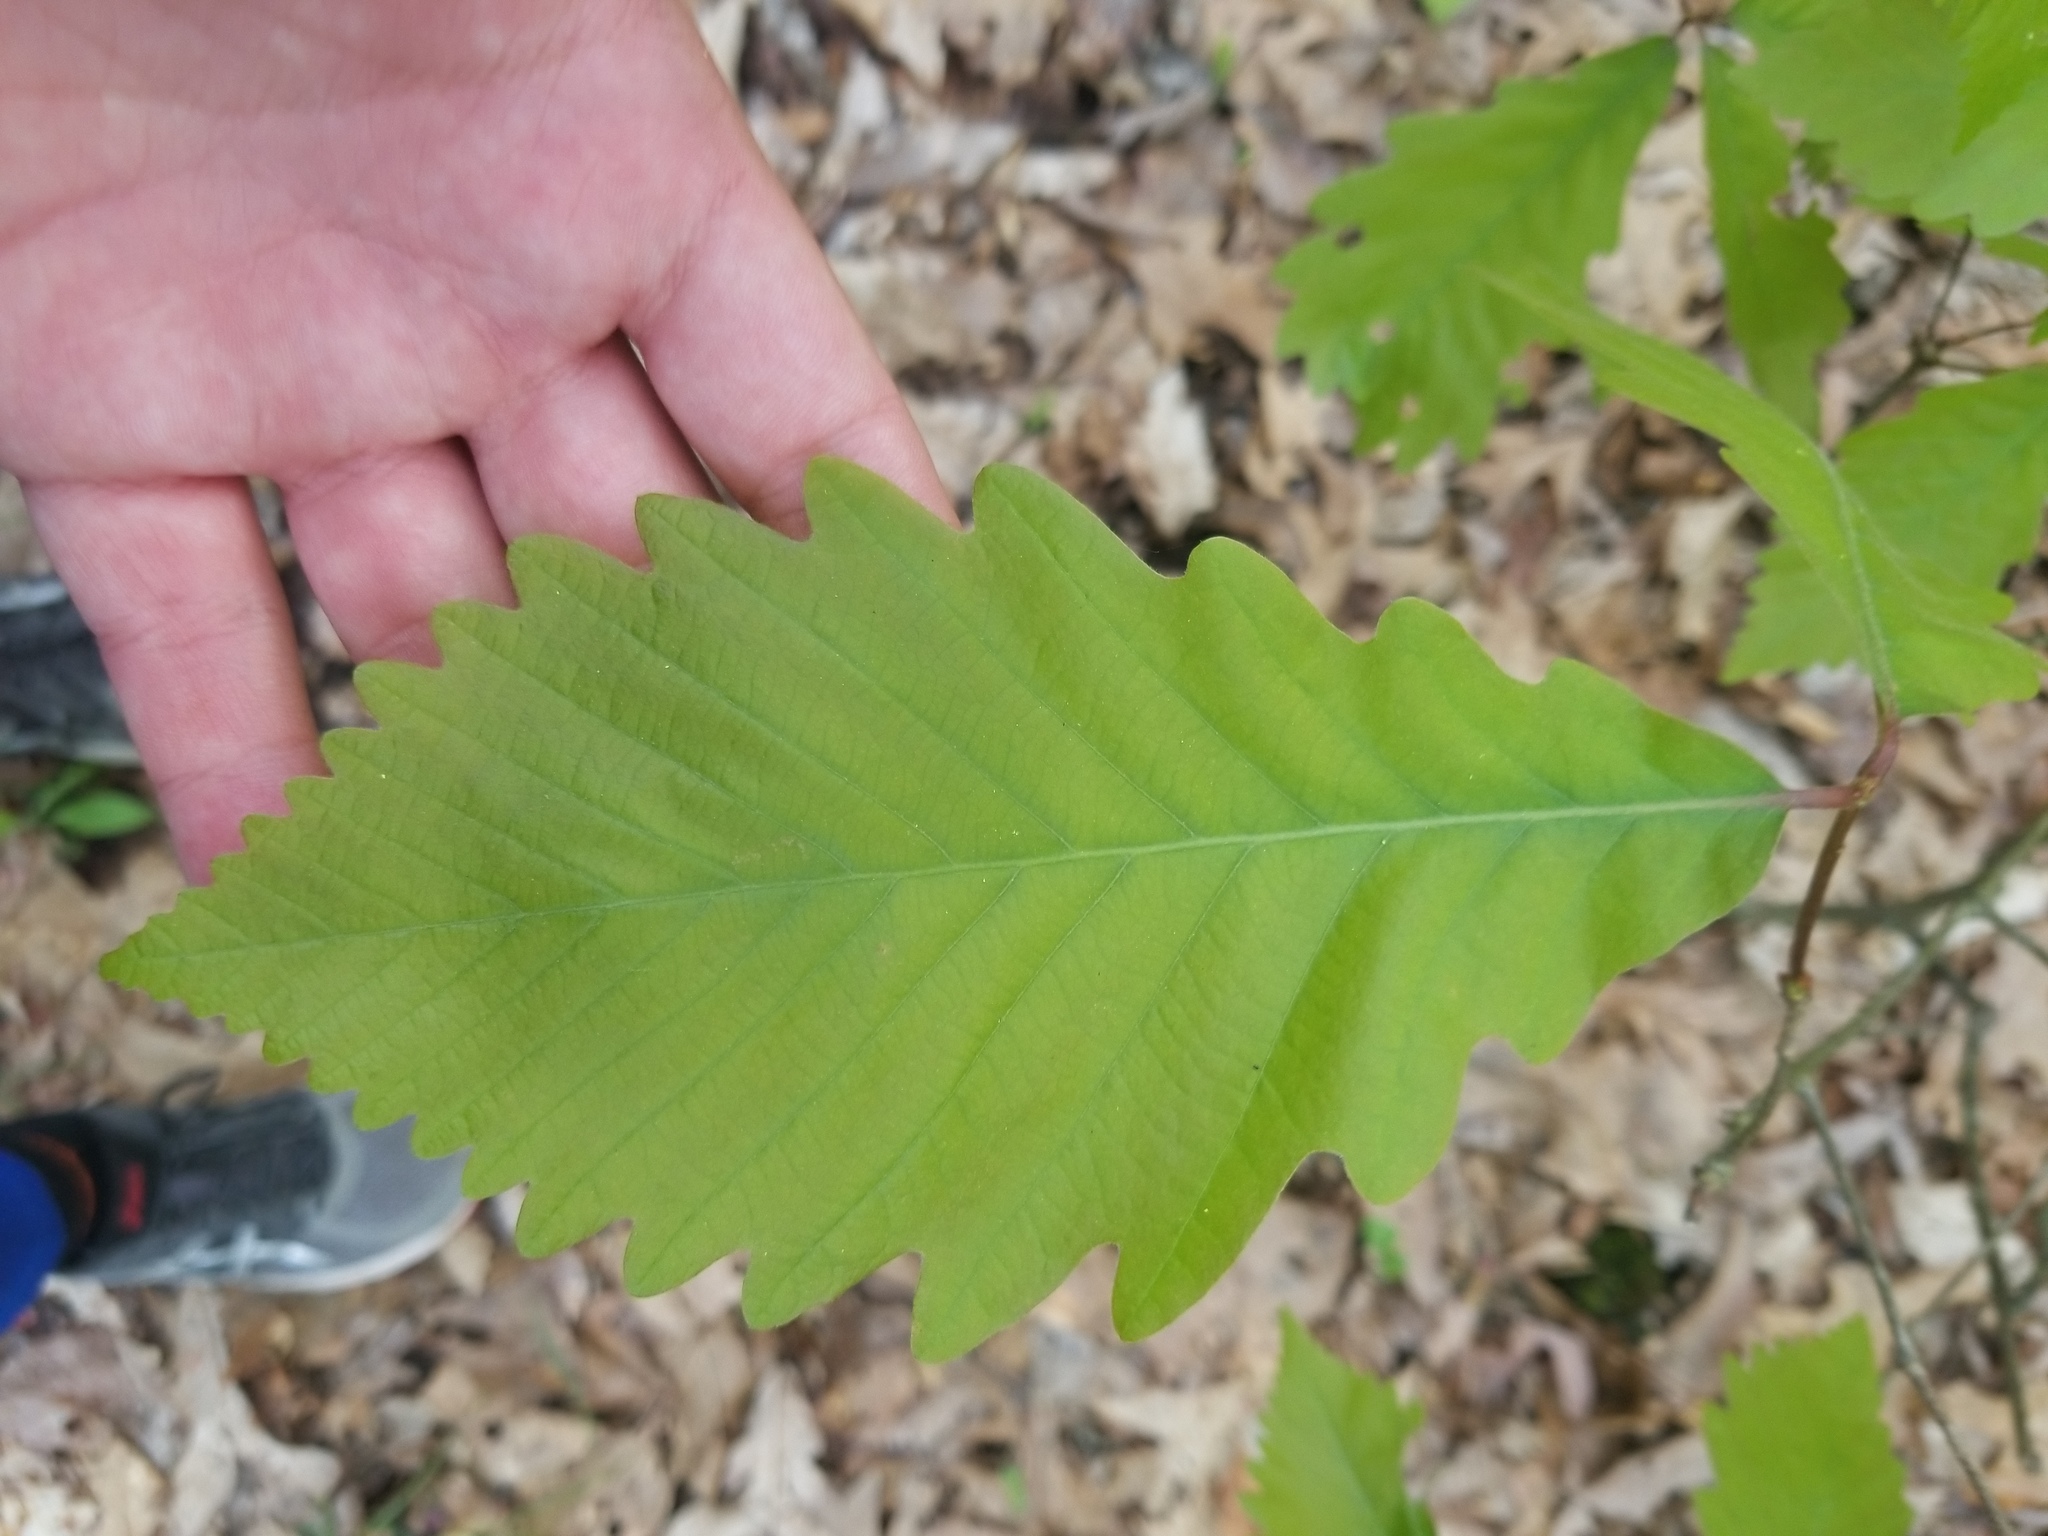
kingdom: Plantae
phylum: Tracheophyta
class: Magnoliopsida
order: Fagales
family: Fagaceae
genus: Quercus
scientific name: Quercus montana
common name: Chestnut oak
